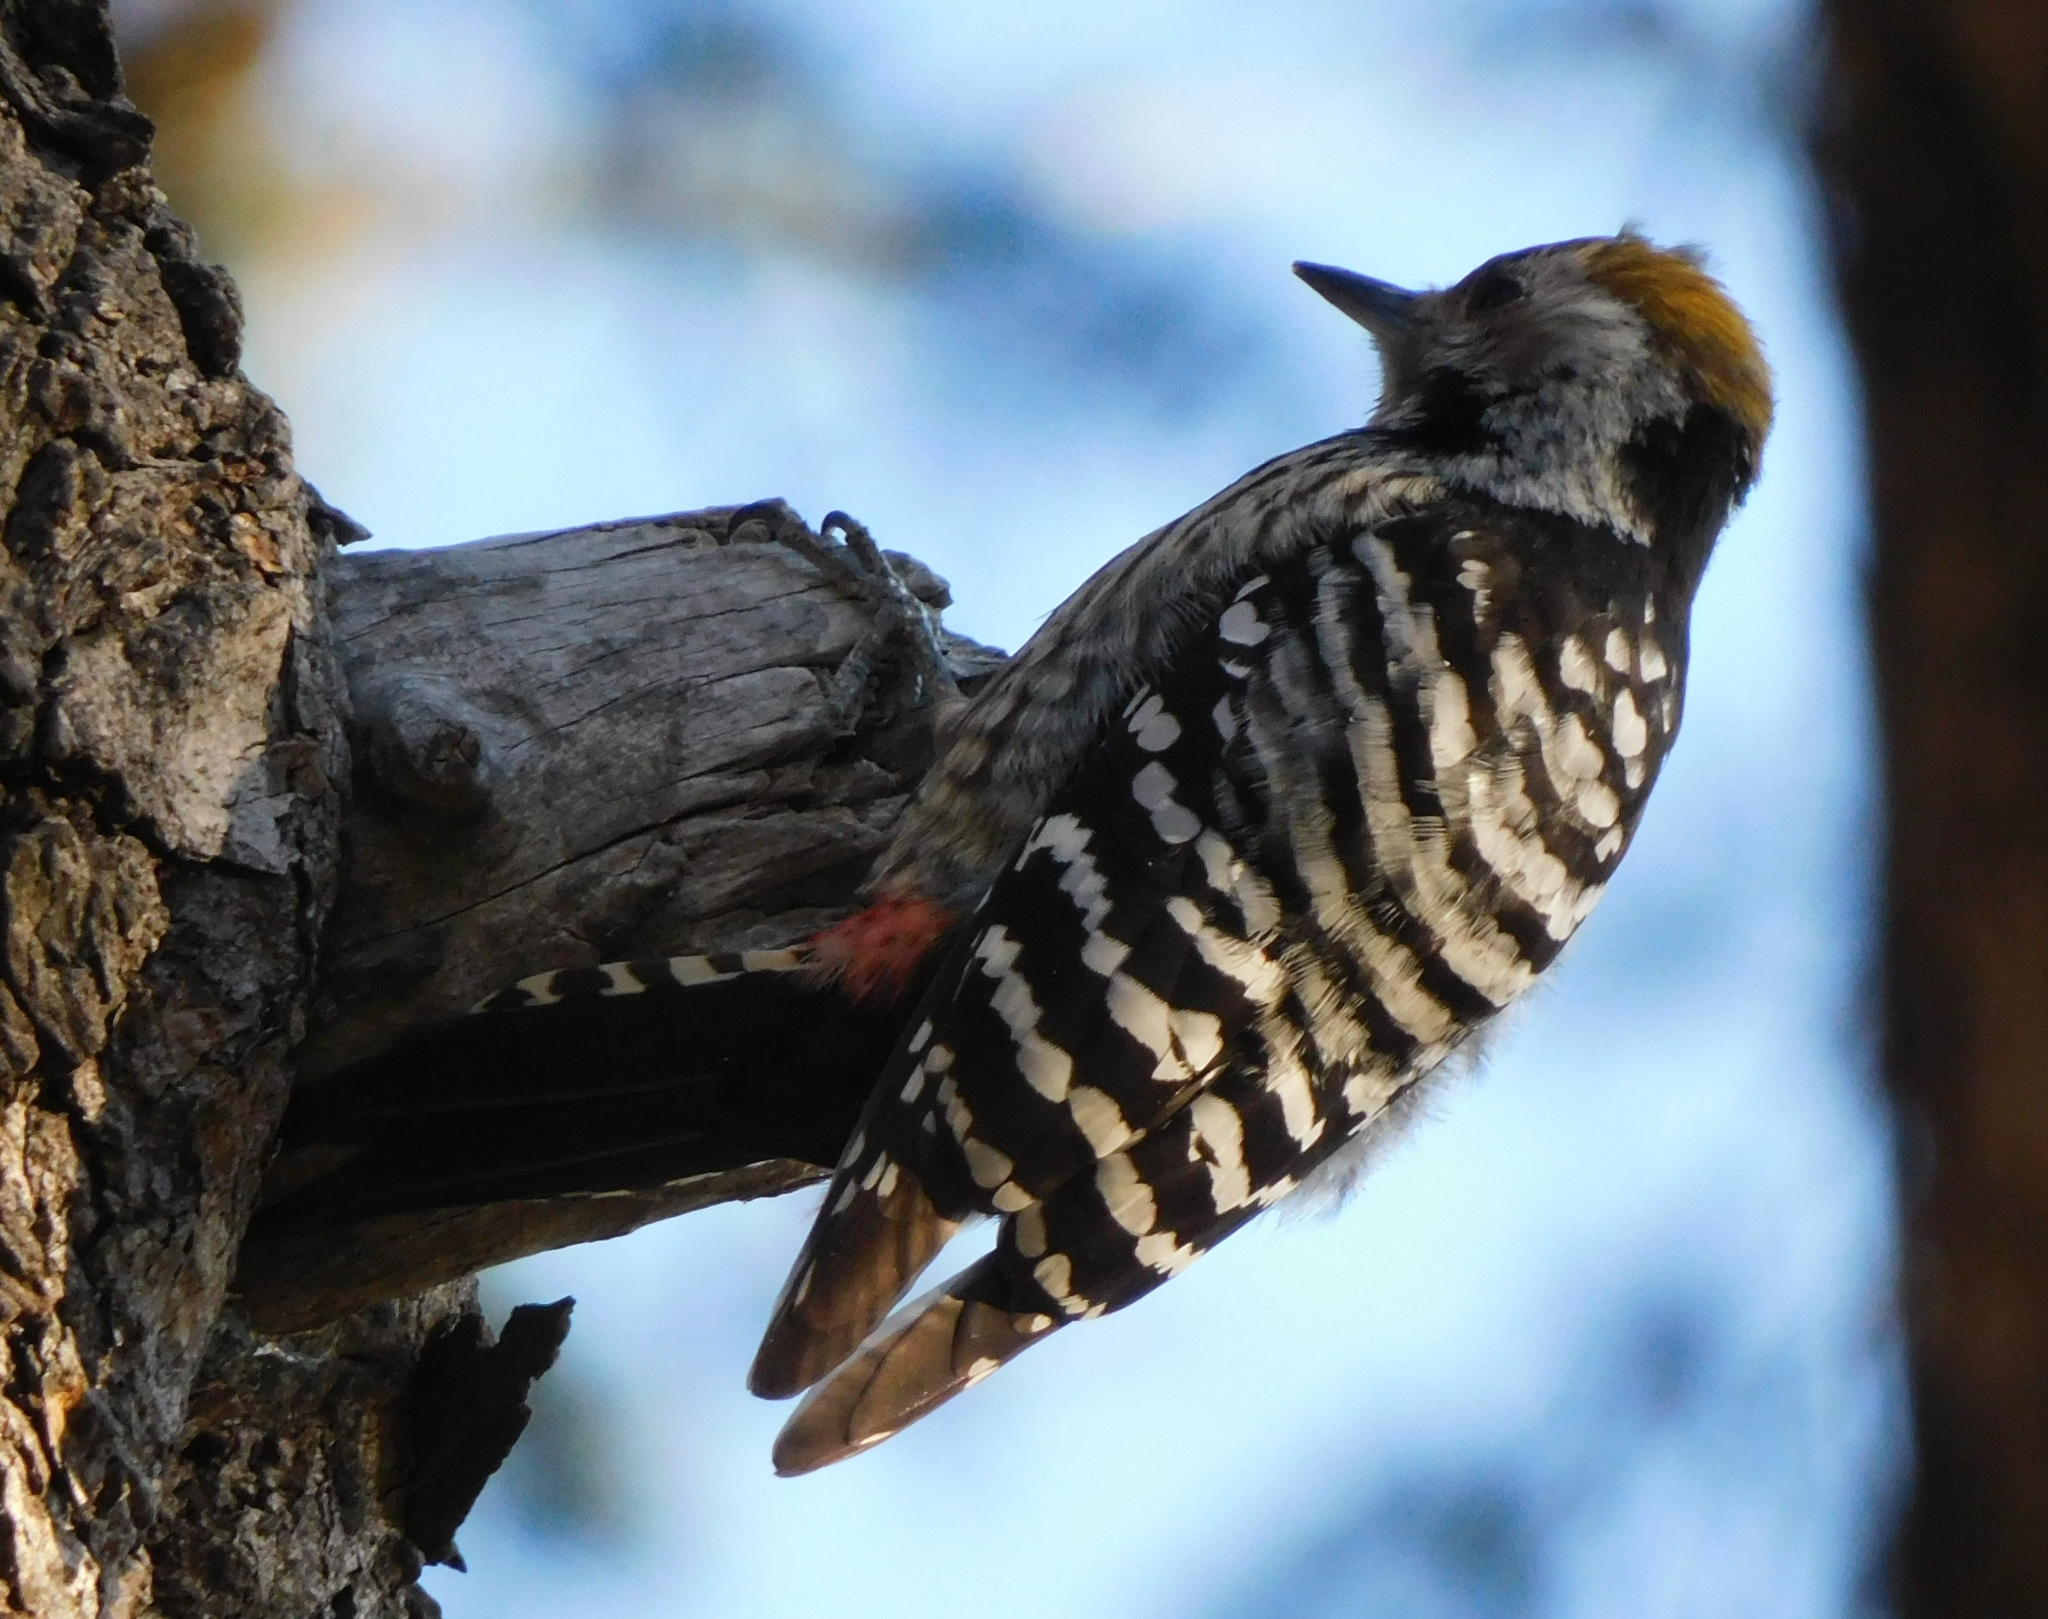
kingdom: Animalia
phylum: Chordata
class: Aves
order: Piciformes
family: Picidae
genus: Dendrocoptes
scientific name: Dendrocoptes auriceps
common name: Brown-fronted woodpecker
